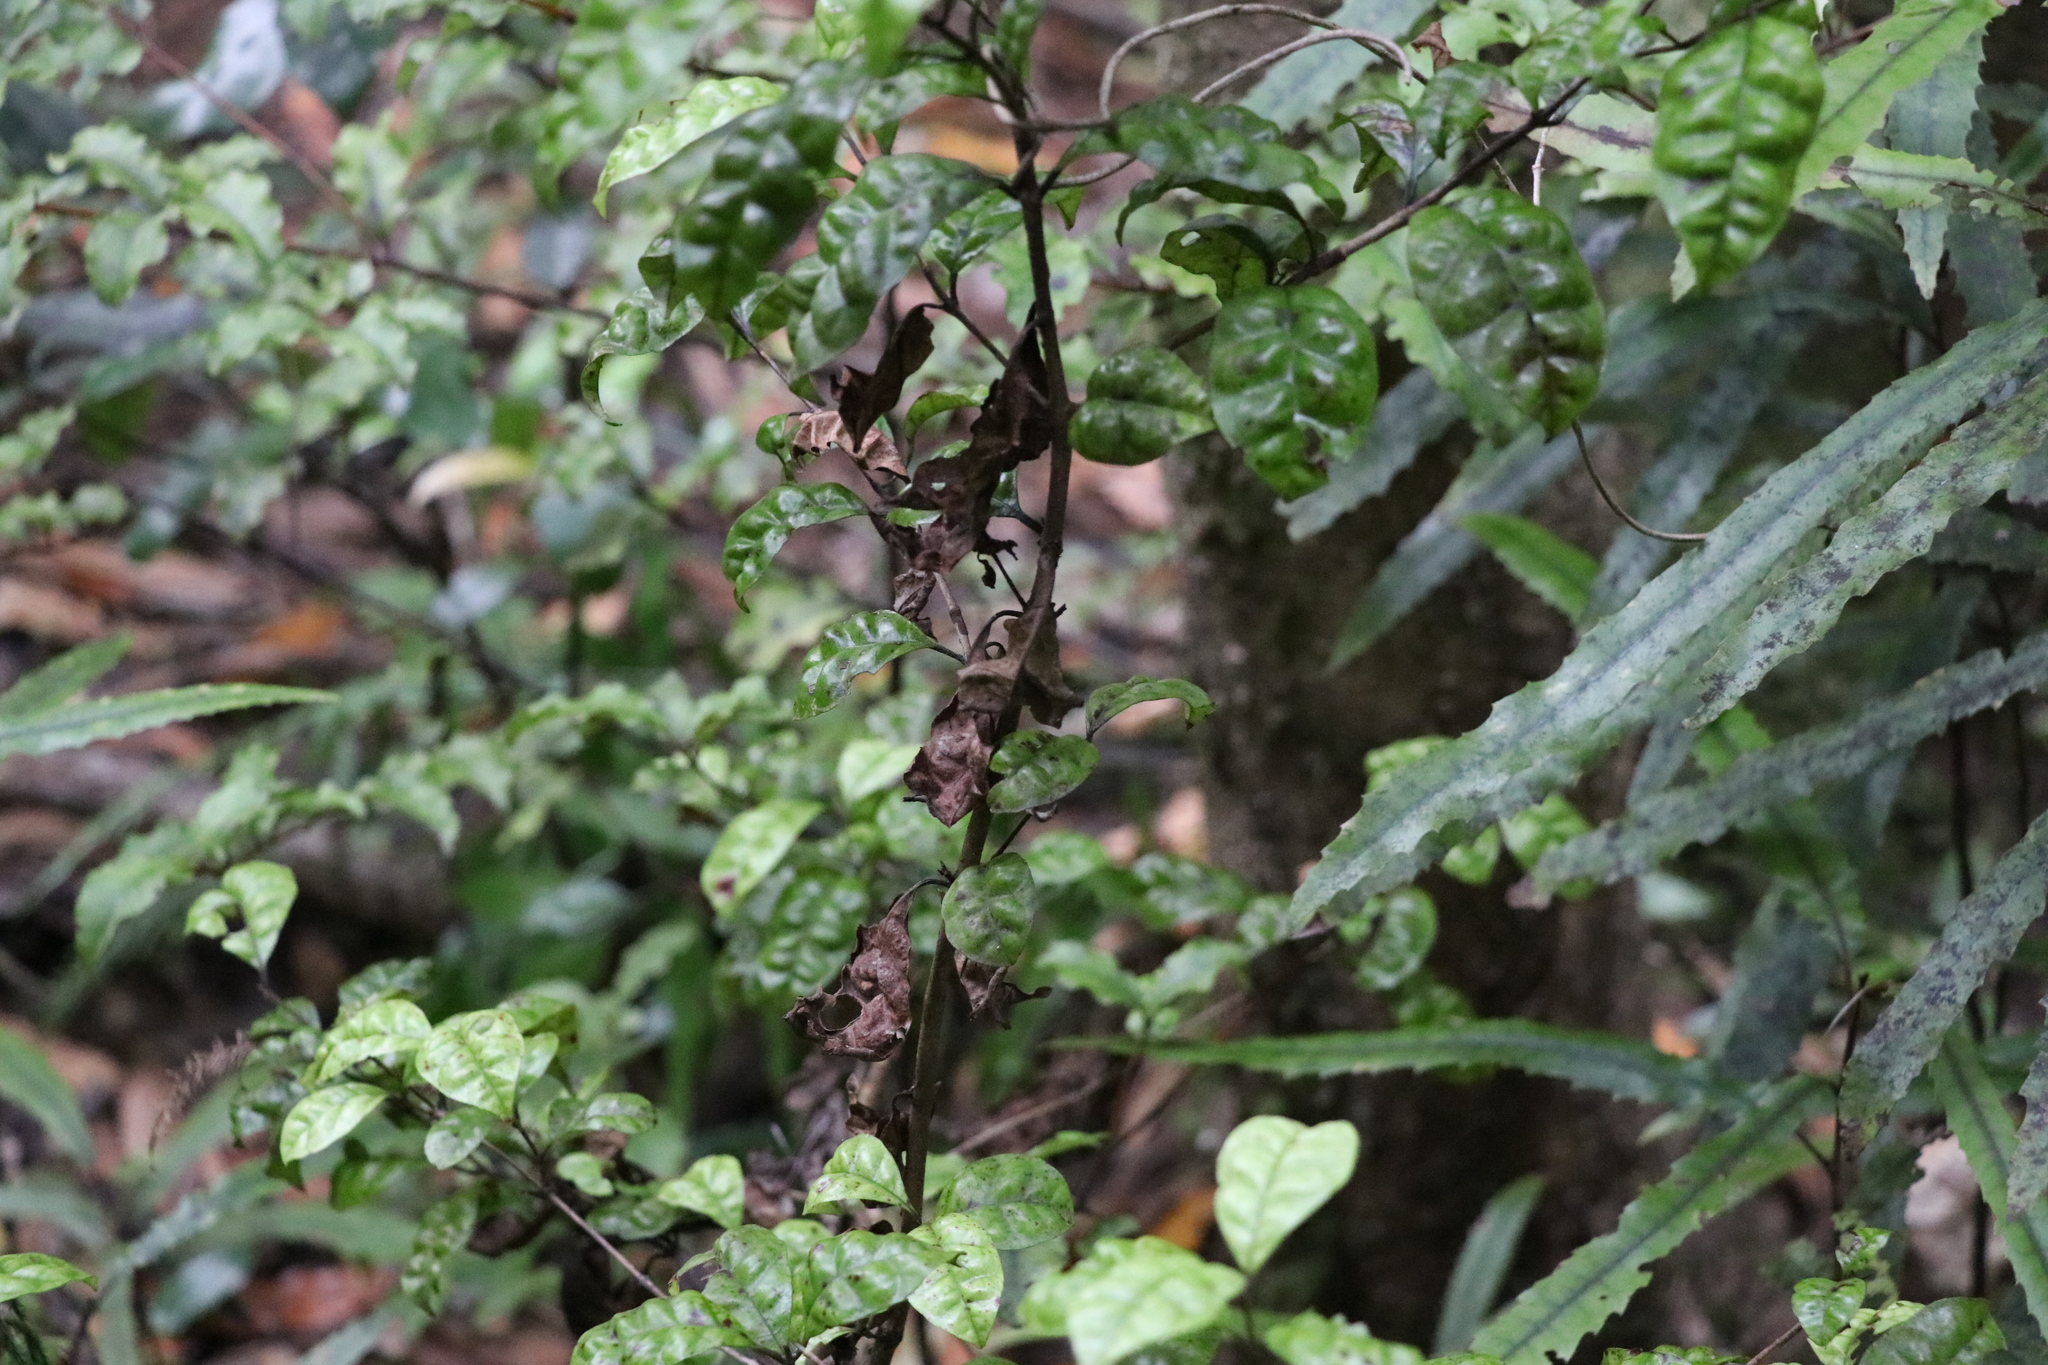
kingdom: Fungi
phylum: Basidiomycota
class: Pucciniomycetes
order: Pucciniales
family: Sphaerophragmiaceae
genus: Austropuccinia
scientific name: Austropuccinia psidii
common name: Myrtle rust
